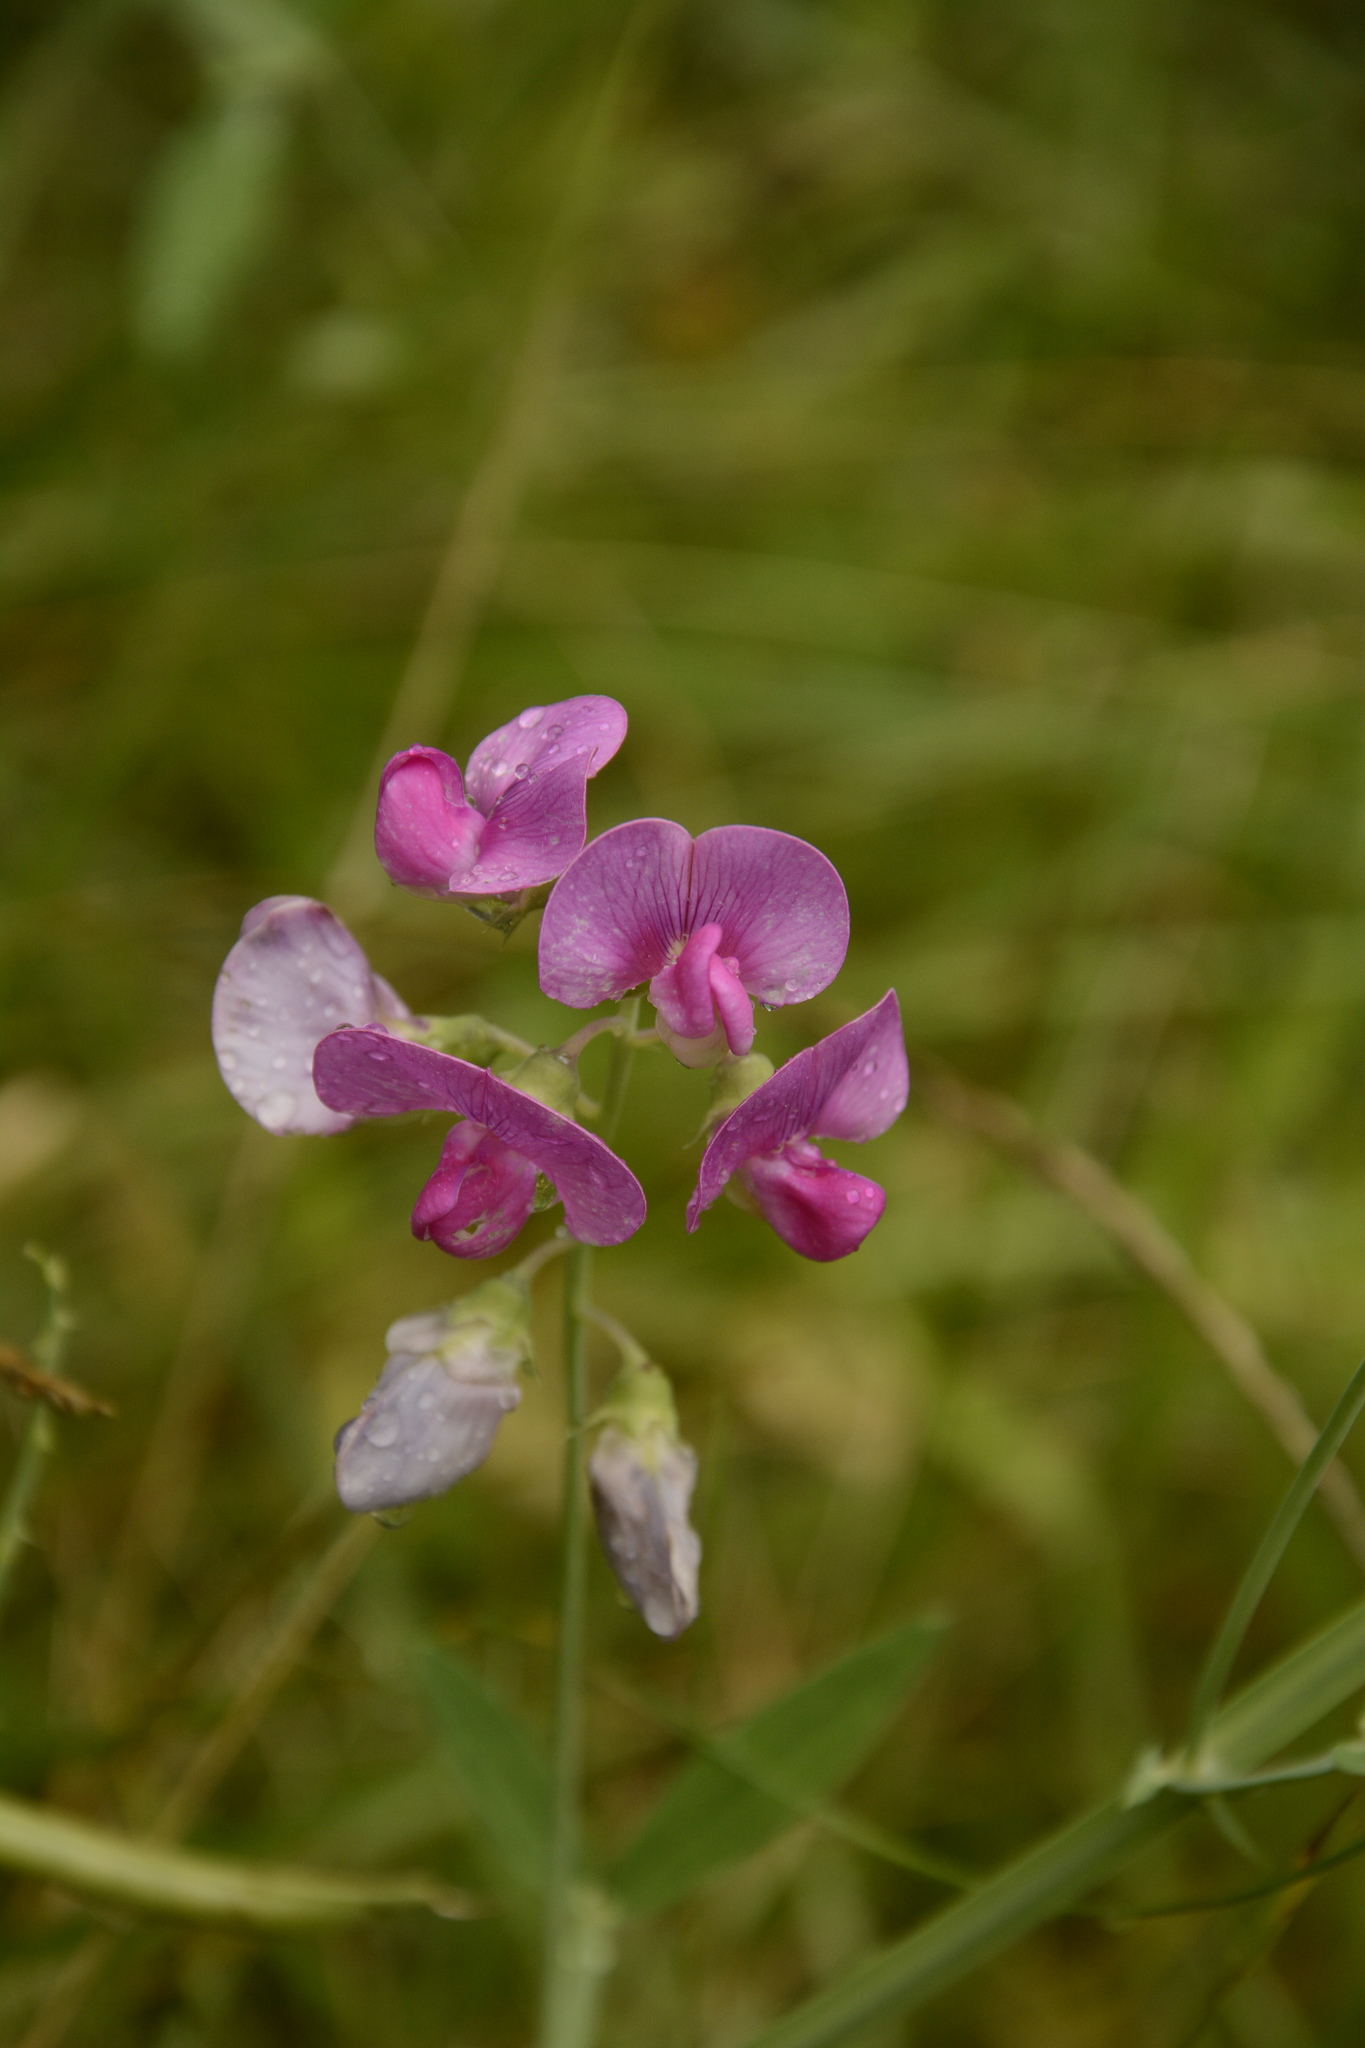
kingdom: Plantae
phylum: Tracheophyta
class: Magnoliopsida
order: Fabales
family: Fabaceae
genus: Lathyrus
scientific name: Lathyrus latifolius
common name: Perennial pea
